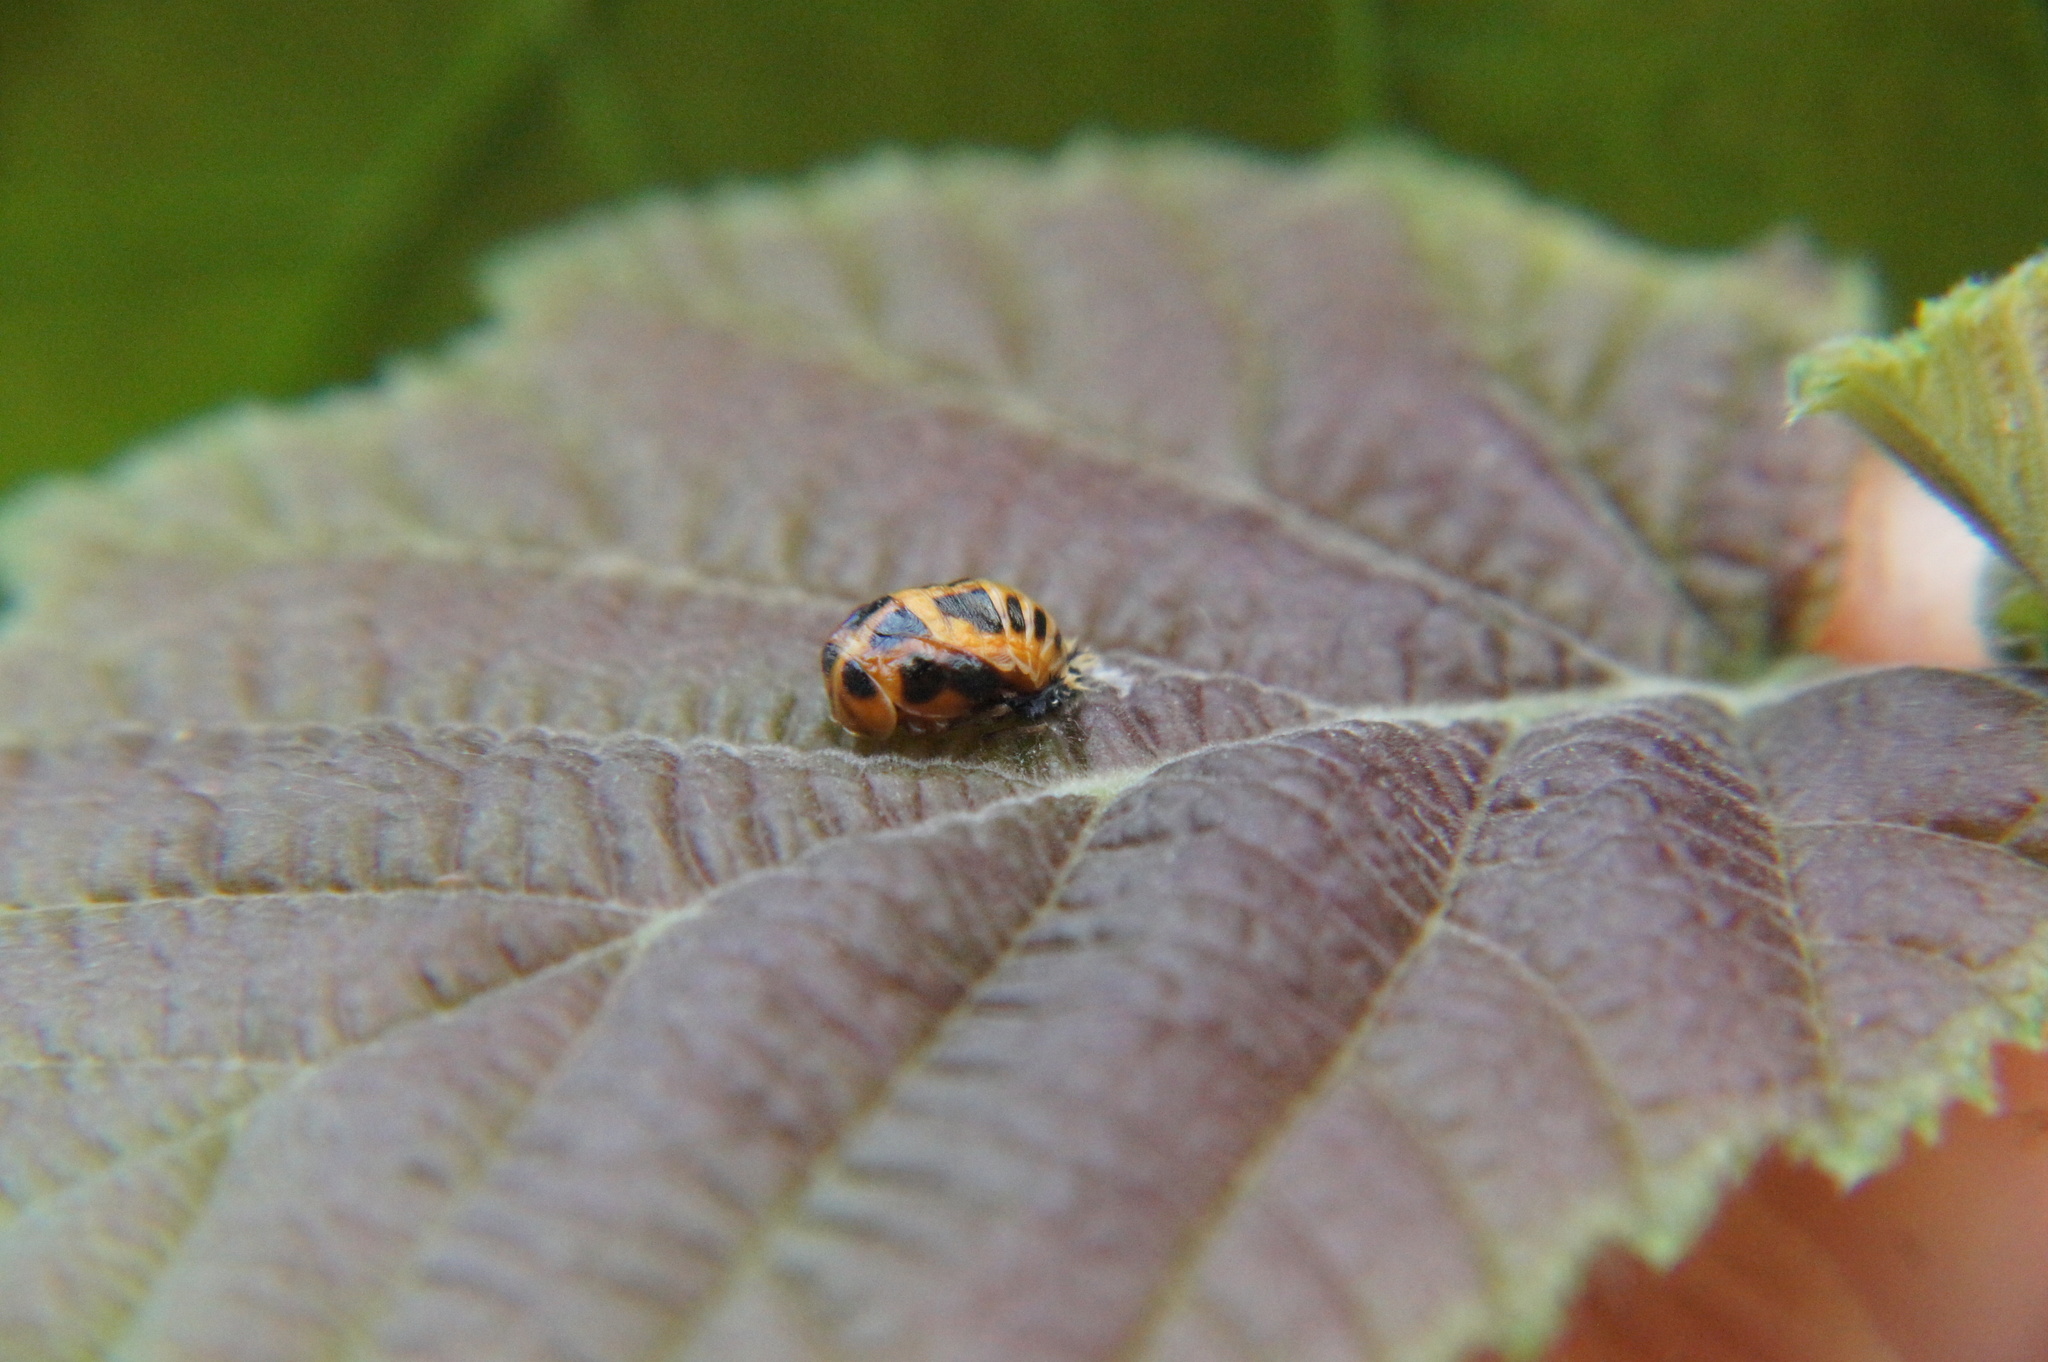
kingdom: Animalia
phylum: Arthropoda
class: Insecta
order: Coleoptera
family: Coccinellidae
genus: Harmonia
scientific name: Harmonia axyridis
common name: Harlequin ladybird
